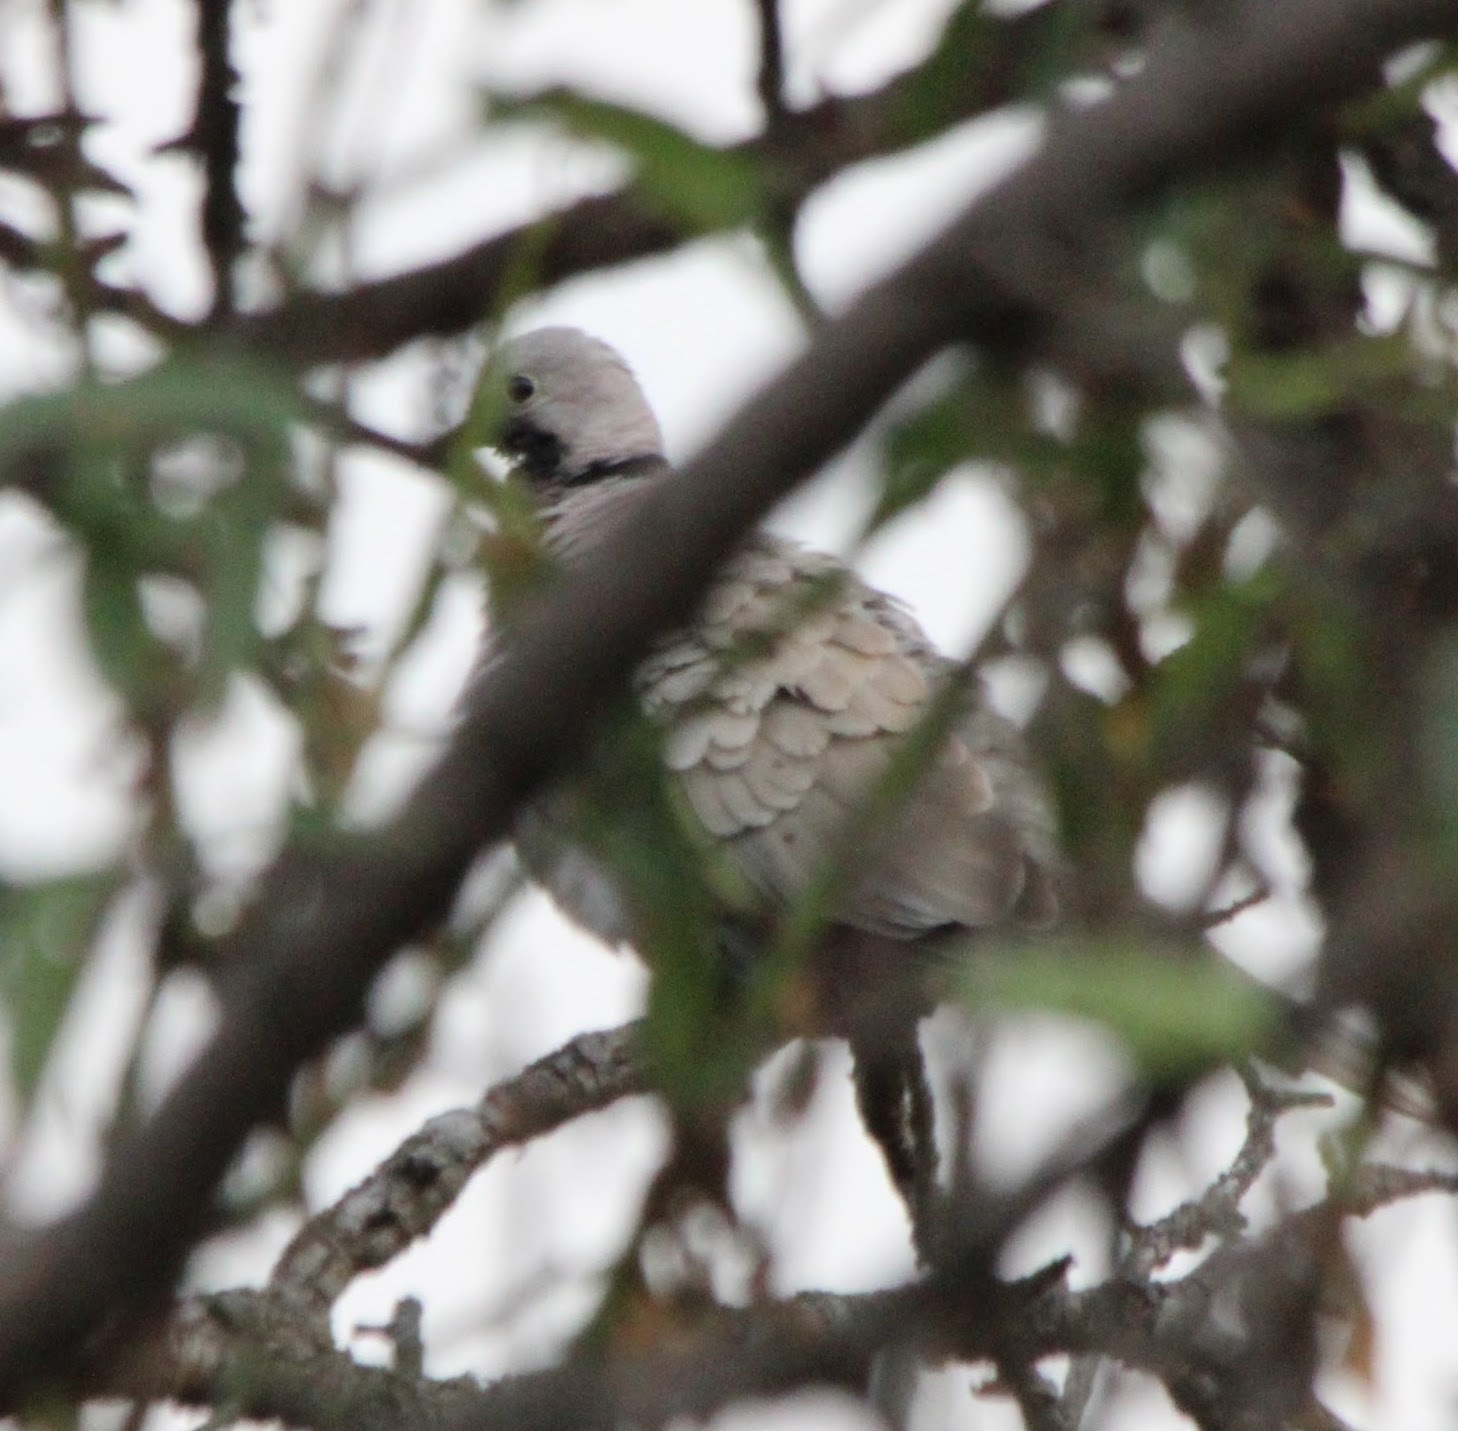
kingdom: Animalia
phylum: Chordata
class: Aves
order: Columbiformes
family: Columbidae
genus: Streptopelia
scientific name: Streptopelia decaocto
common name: Eurasian collared dove
